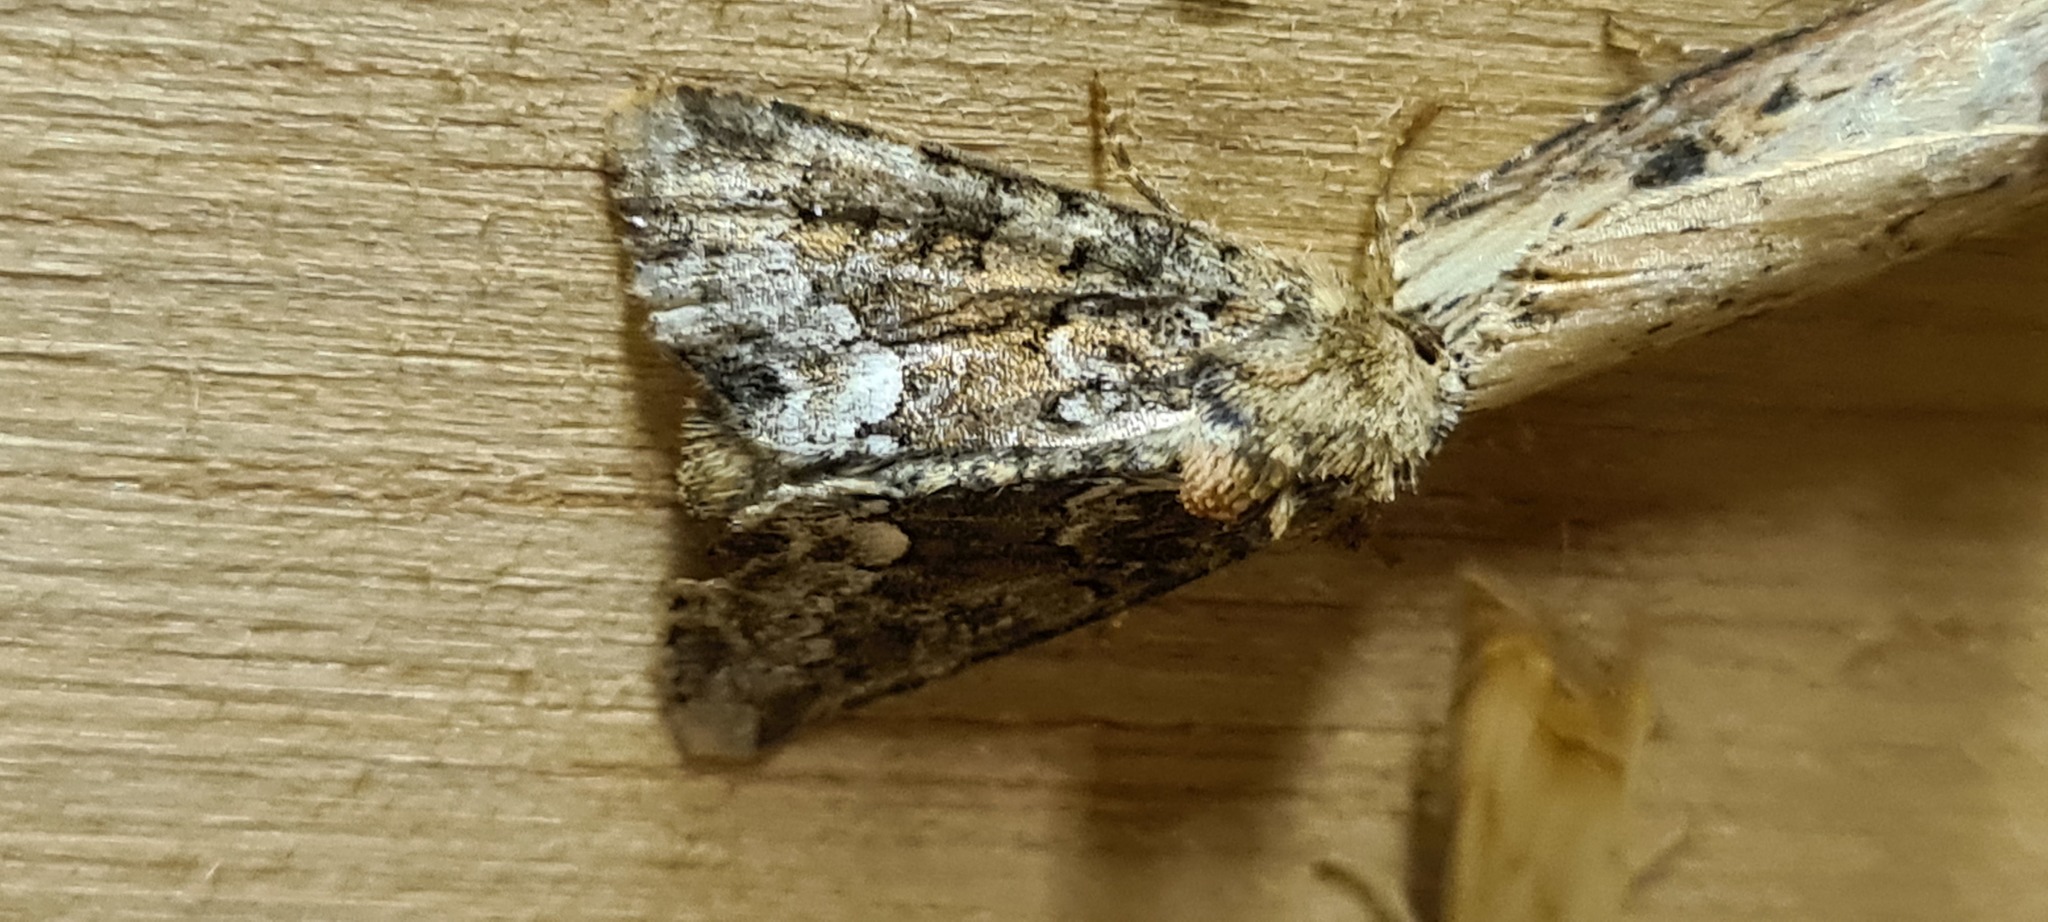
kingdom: Animalia
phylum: Arthropoda
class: Insecta
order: Lepidoptera
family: Noctuidae
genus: Oligia
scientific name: Oligia strigilis
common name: Marbled minor
